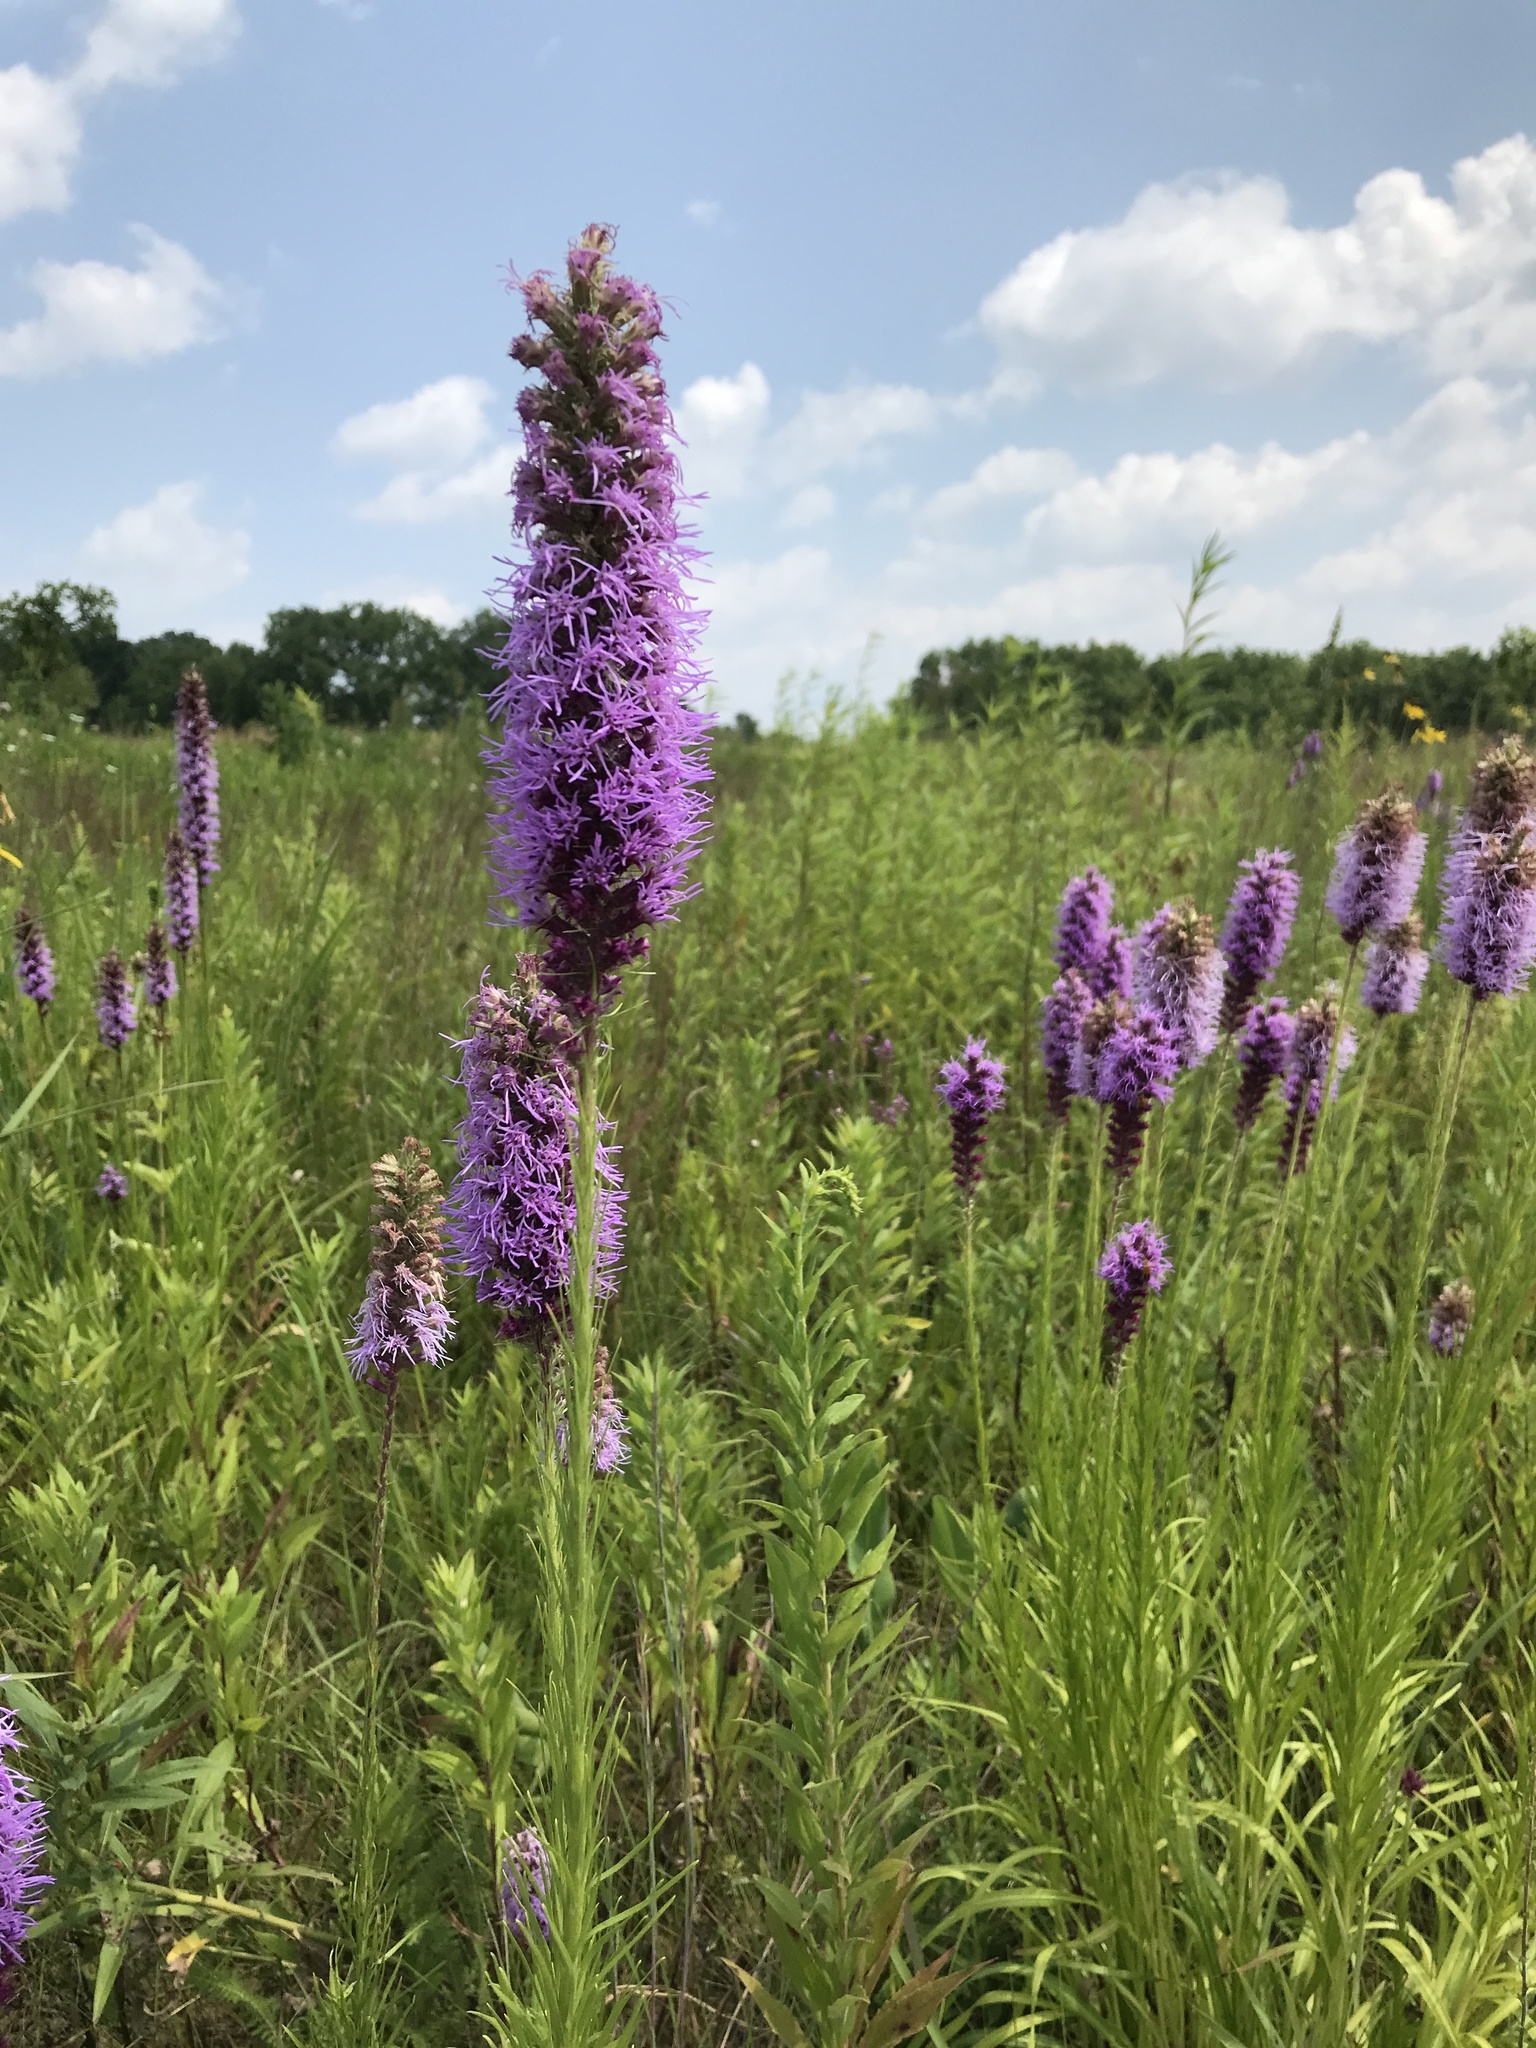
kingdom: Plantae
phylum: Tracheophyta
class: Magnoliopsida
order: Asterales
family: Asteraceae
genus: Liatris
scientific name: Liatris pycnostachya
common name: Cattail gayfeather
